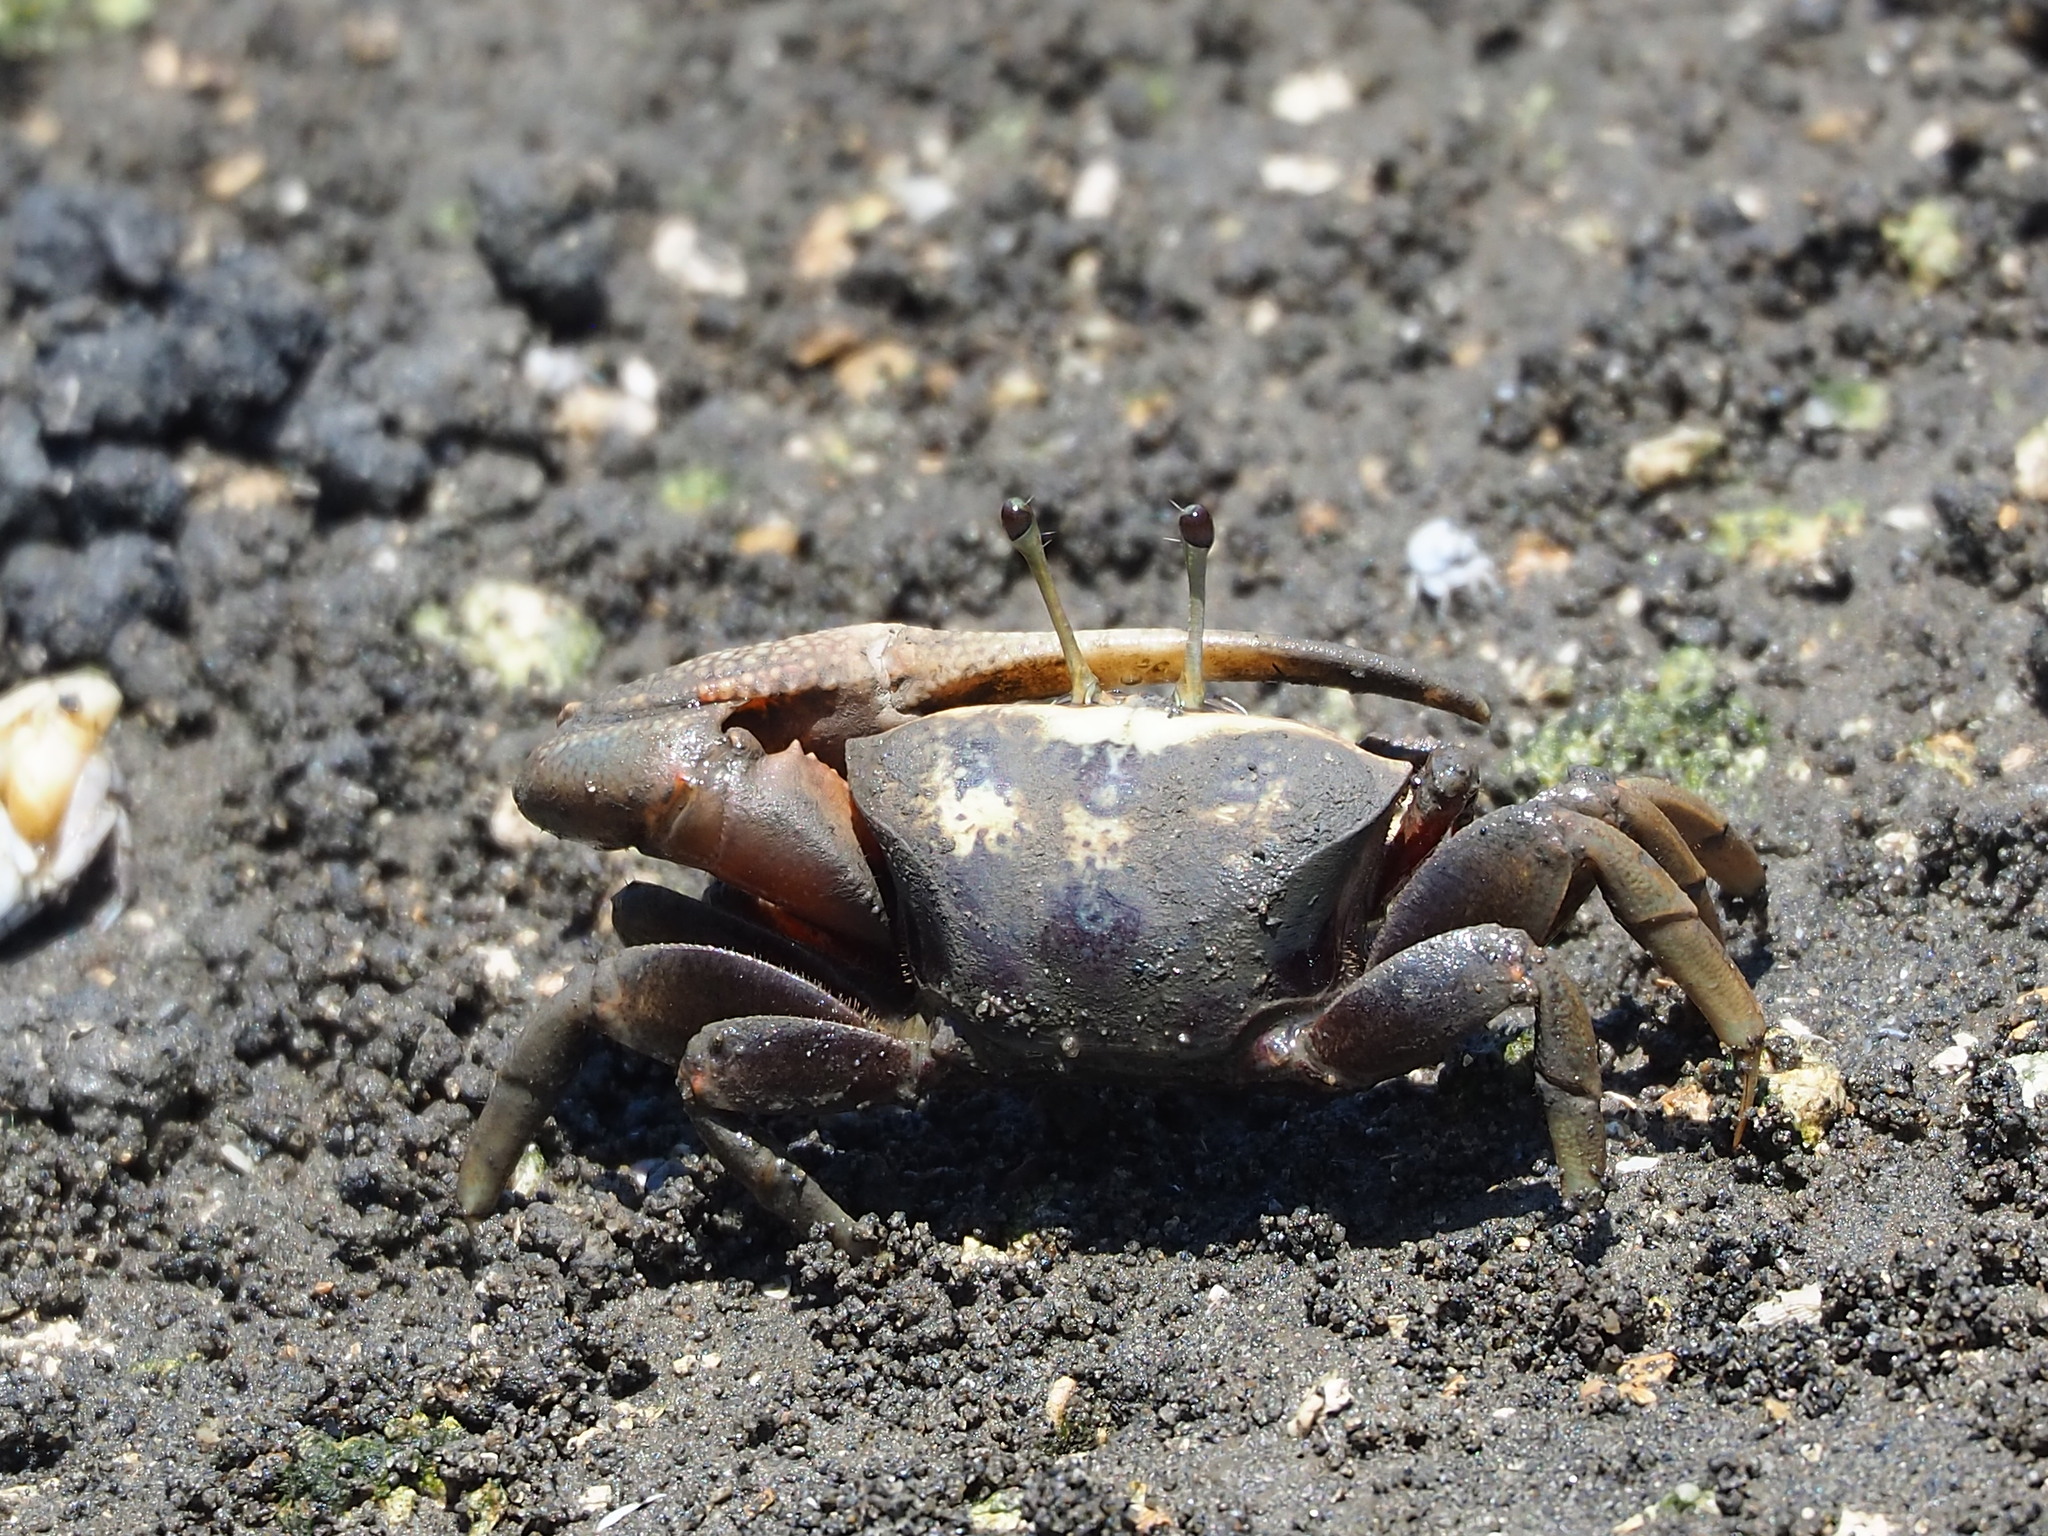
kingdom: Animalia
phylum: Arthropoda
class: Malacostraca
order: Decapoda
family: Ocypodidae
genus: Tubuca
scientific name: Tubuca arcuata
